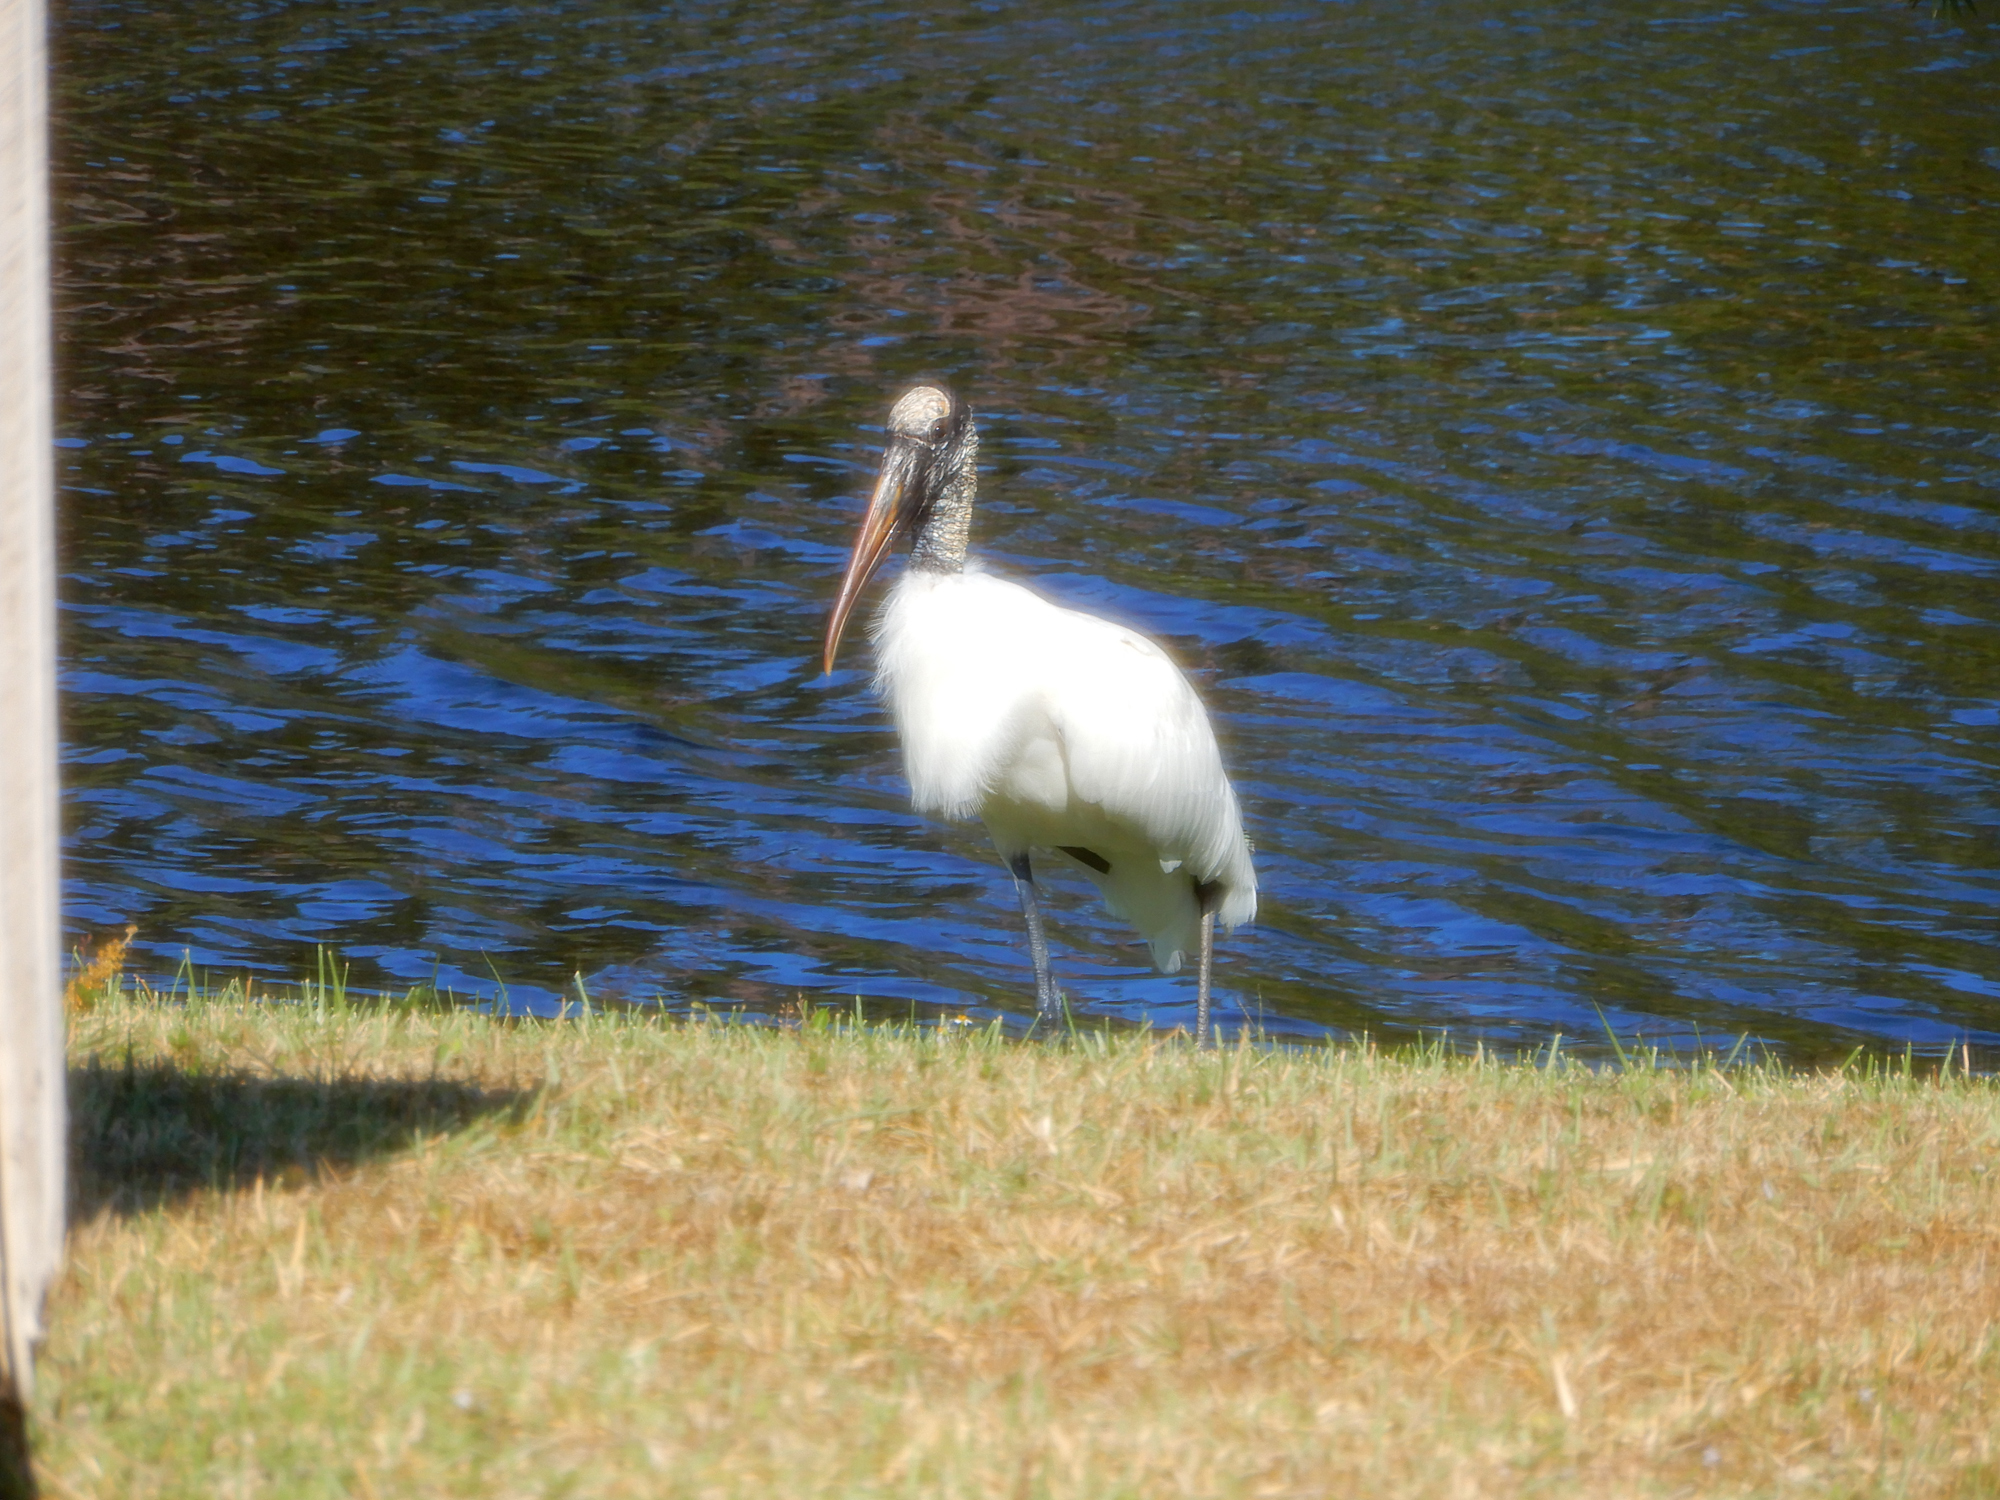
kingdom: Animalia
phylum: Chordata
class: Aves
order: Ciconiiformes
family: Ciconiidae
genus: Mycteria
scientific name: Mycteria americana
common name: Wood stork
